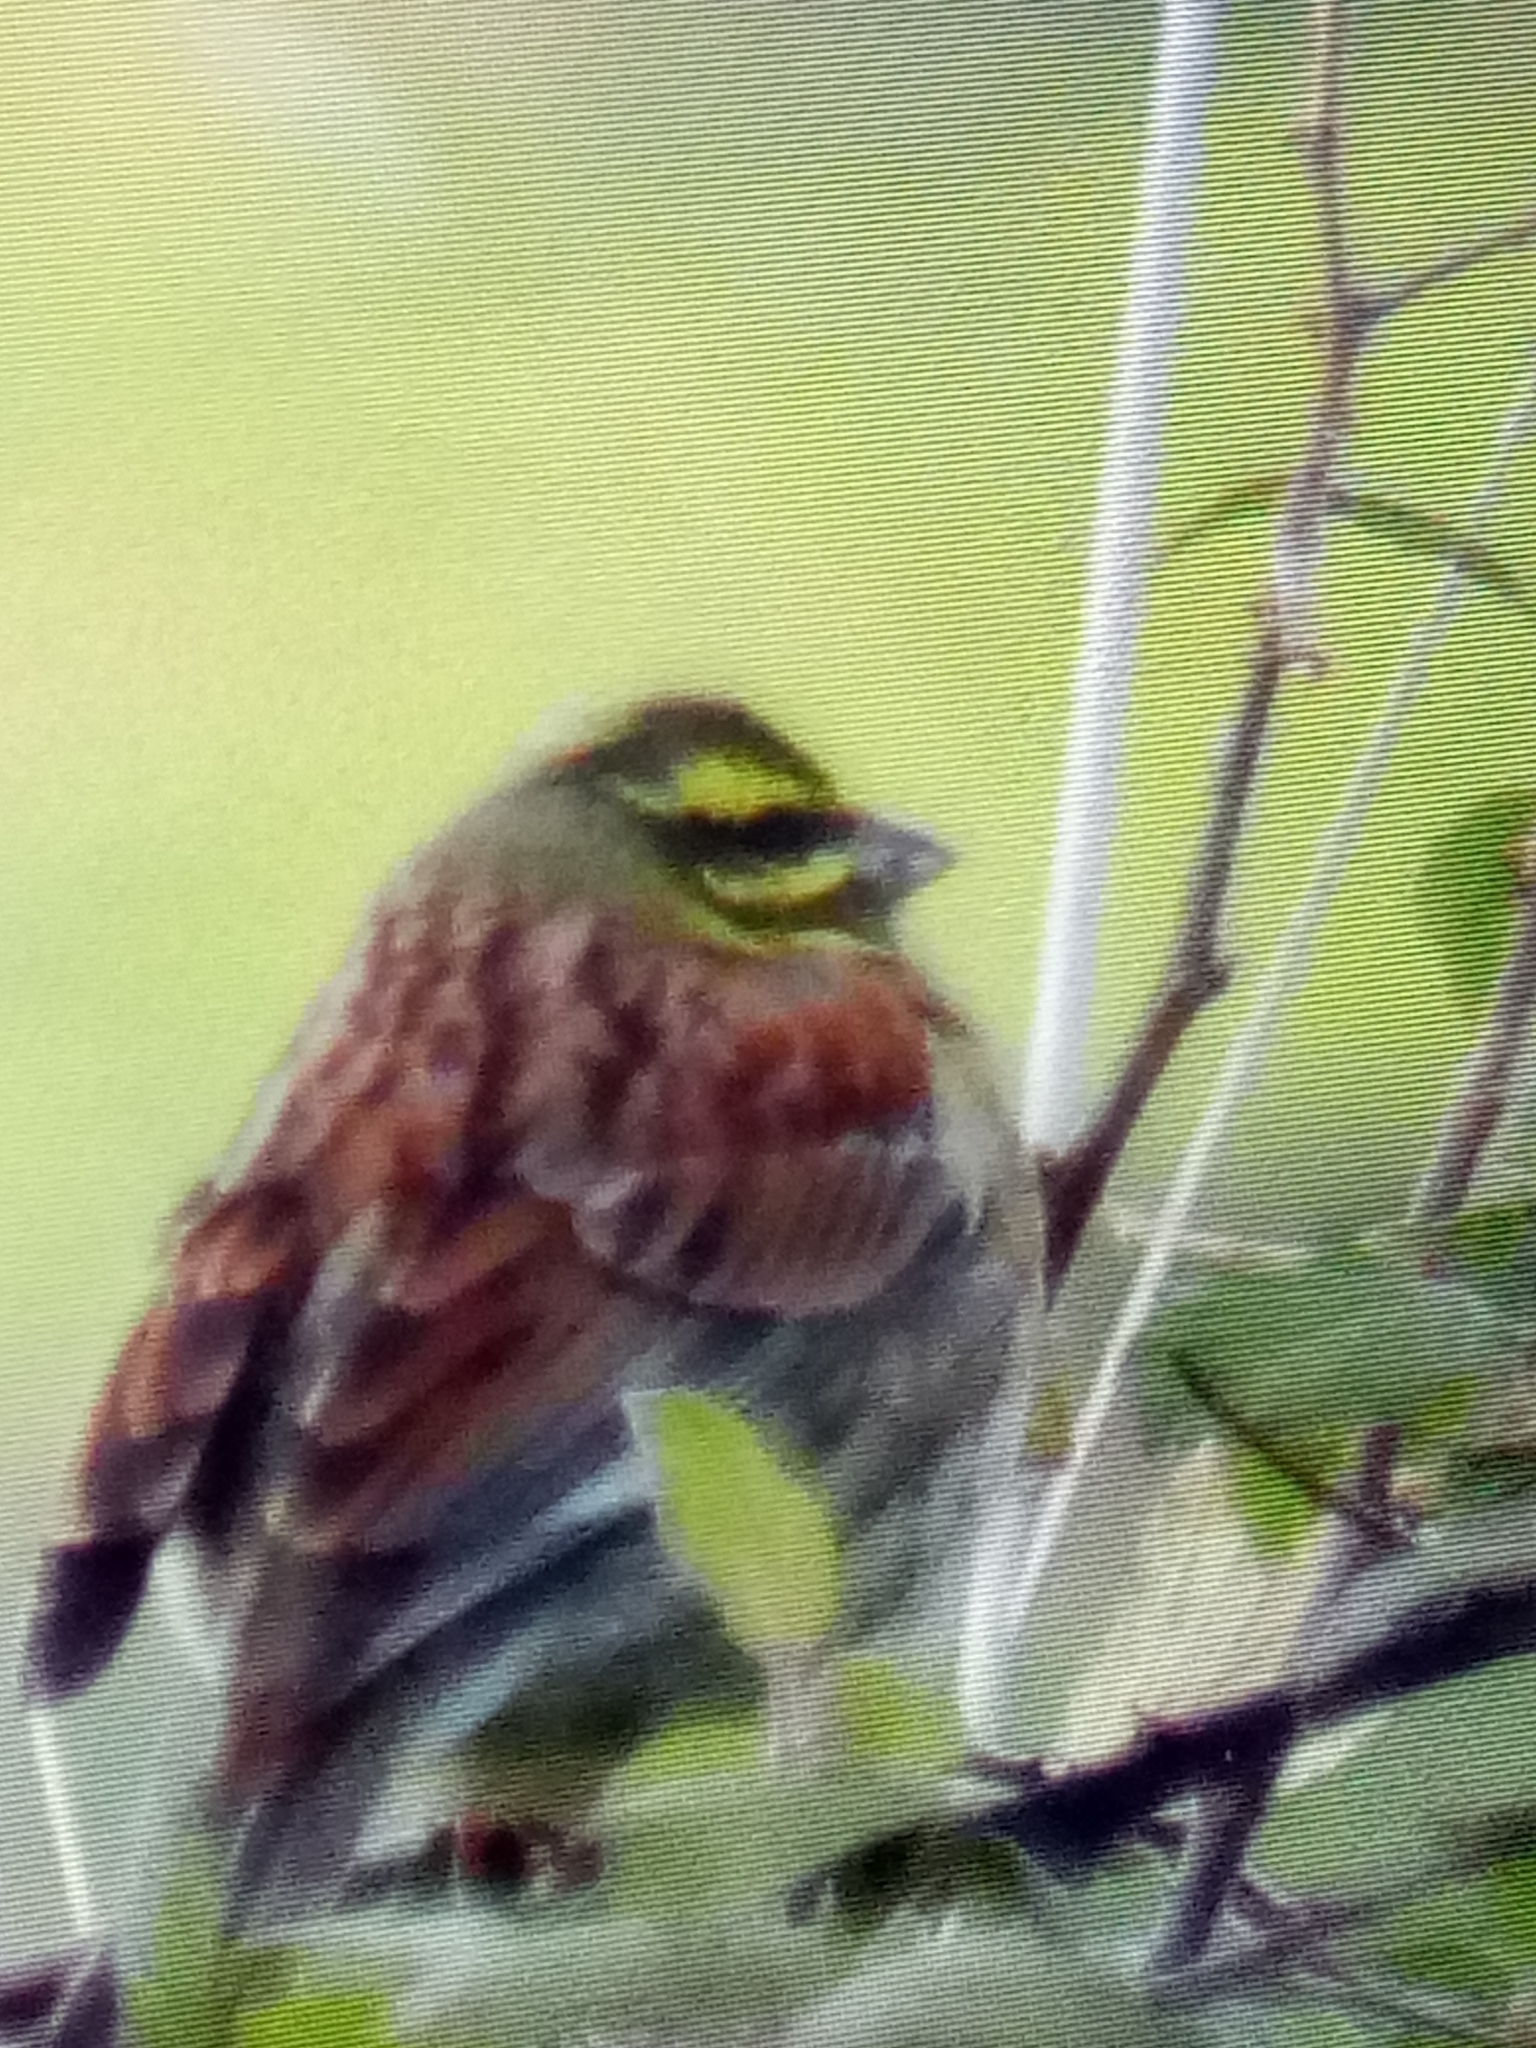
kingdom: Animalia
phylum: Chordata
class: Aves
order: Passeriformes
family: Emberizidae
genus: Emberiza
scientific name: Emberiza cirlus
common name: Cirl bunting
